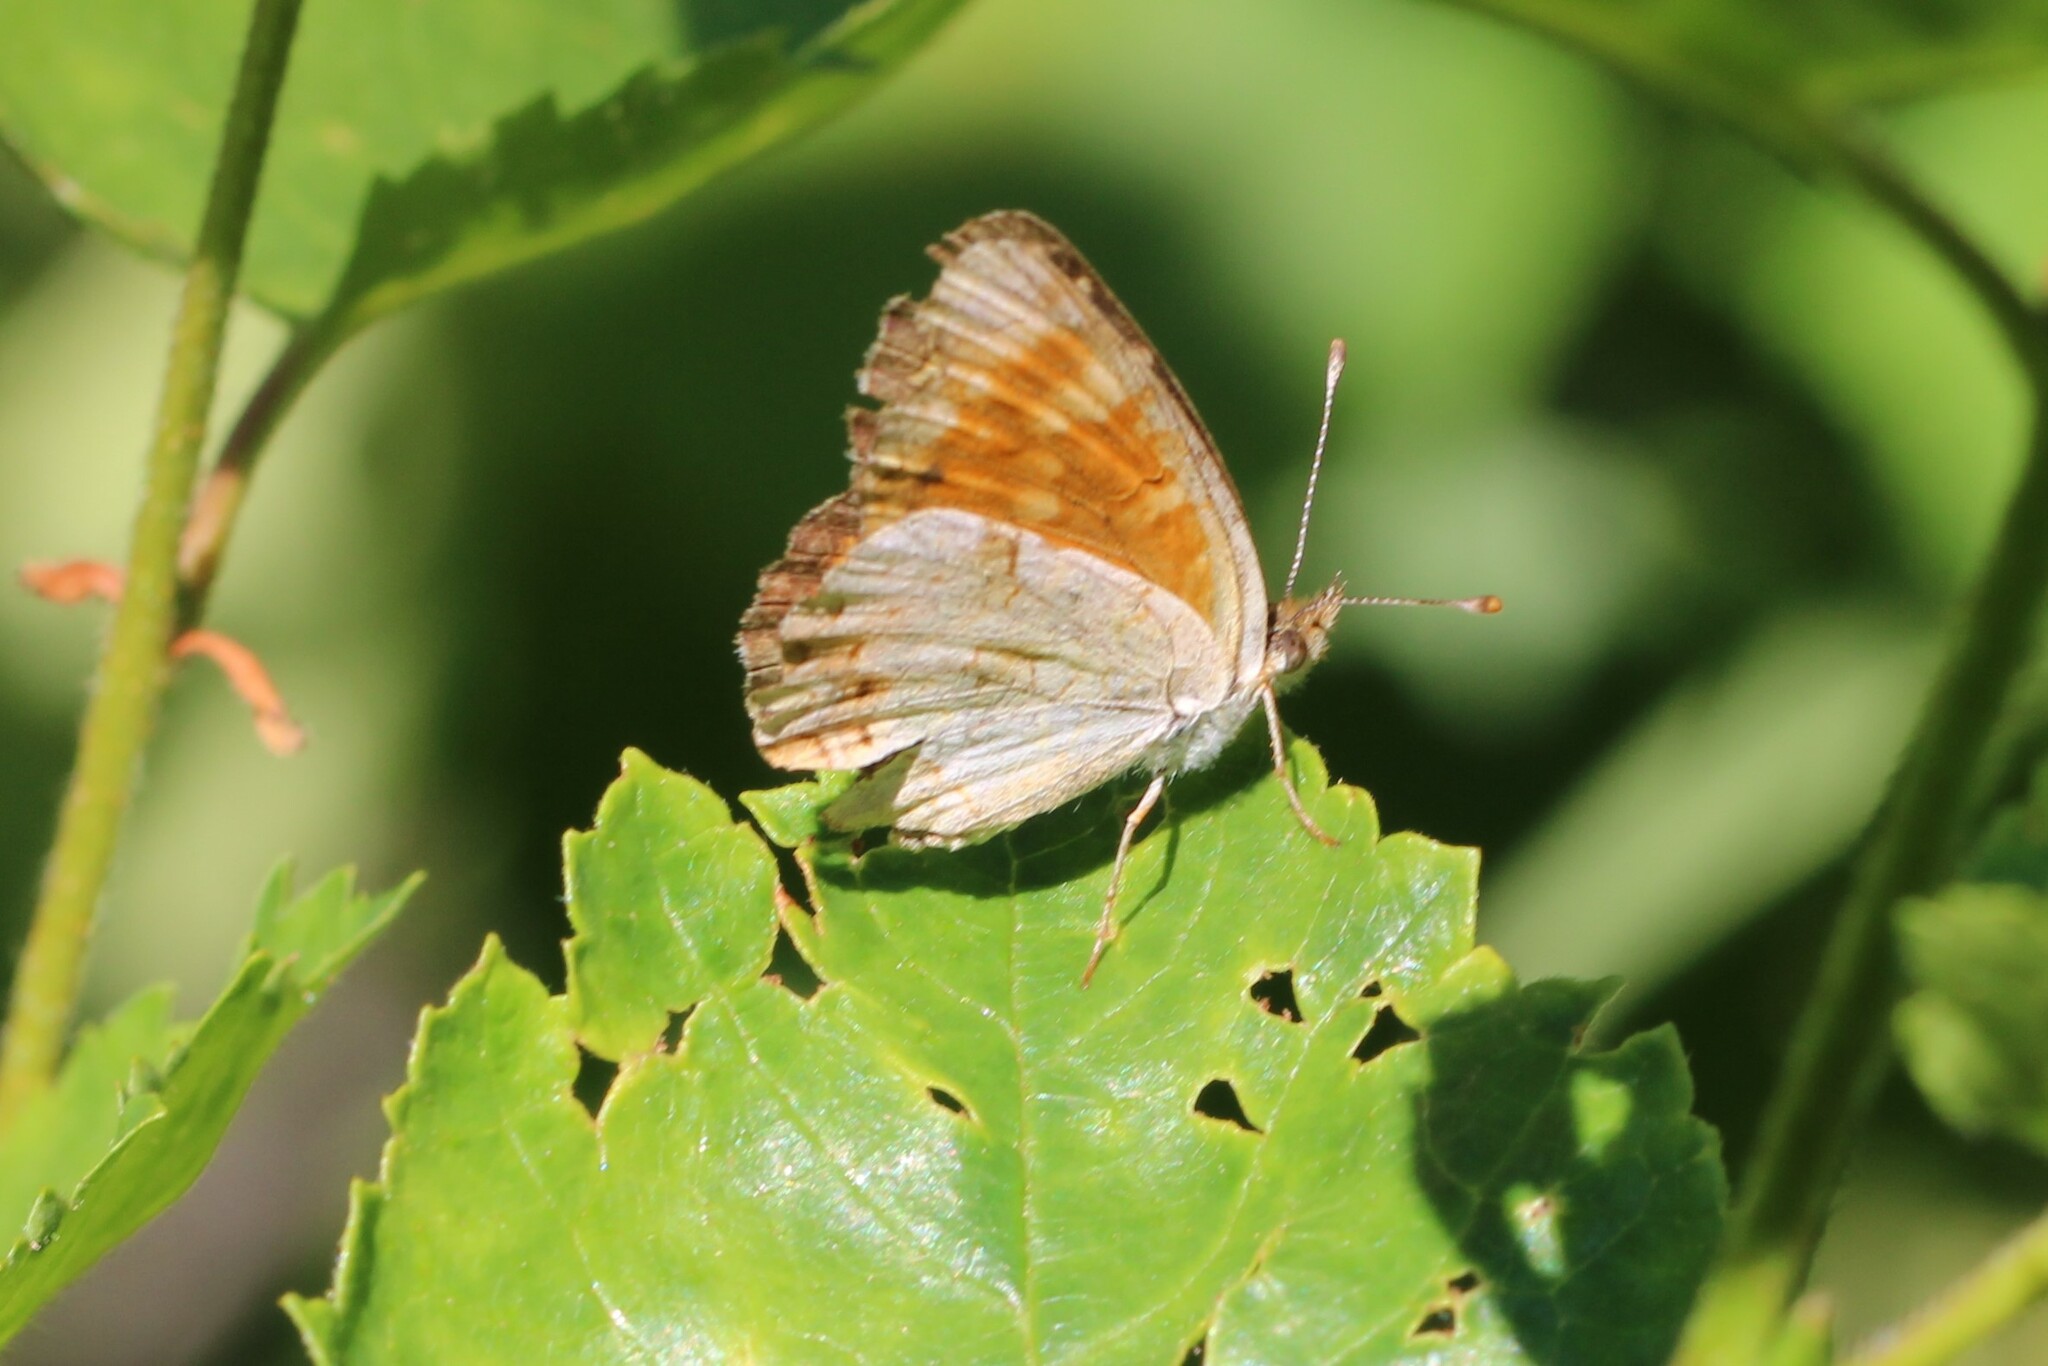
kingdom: Animalia
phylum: Arthropoda
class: Insecta
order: Lepidoptera
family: Nymphalidae
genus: Phyciodes
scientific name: Phyciodes tharos
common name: Pearl crescent
